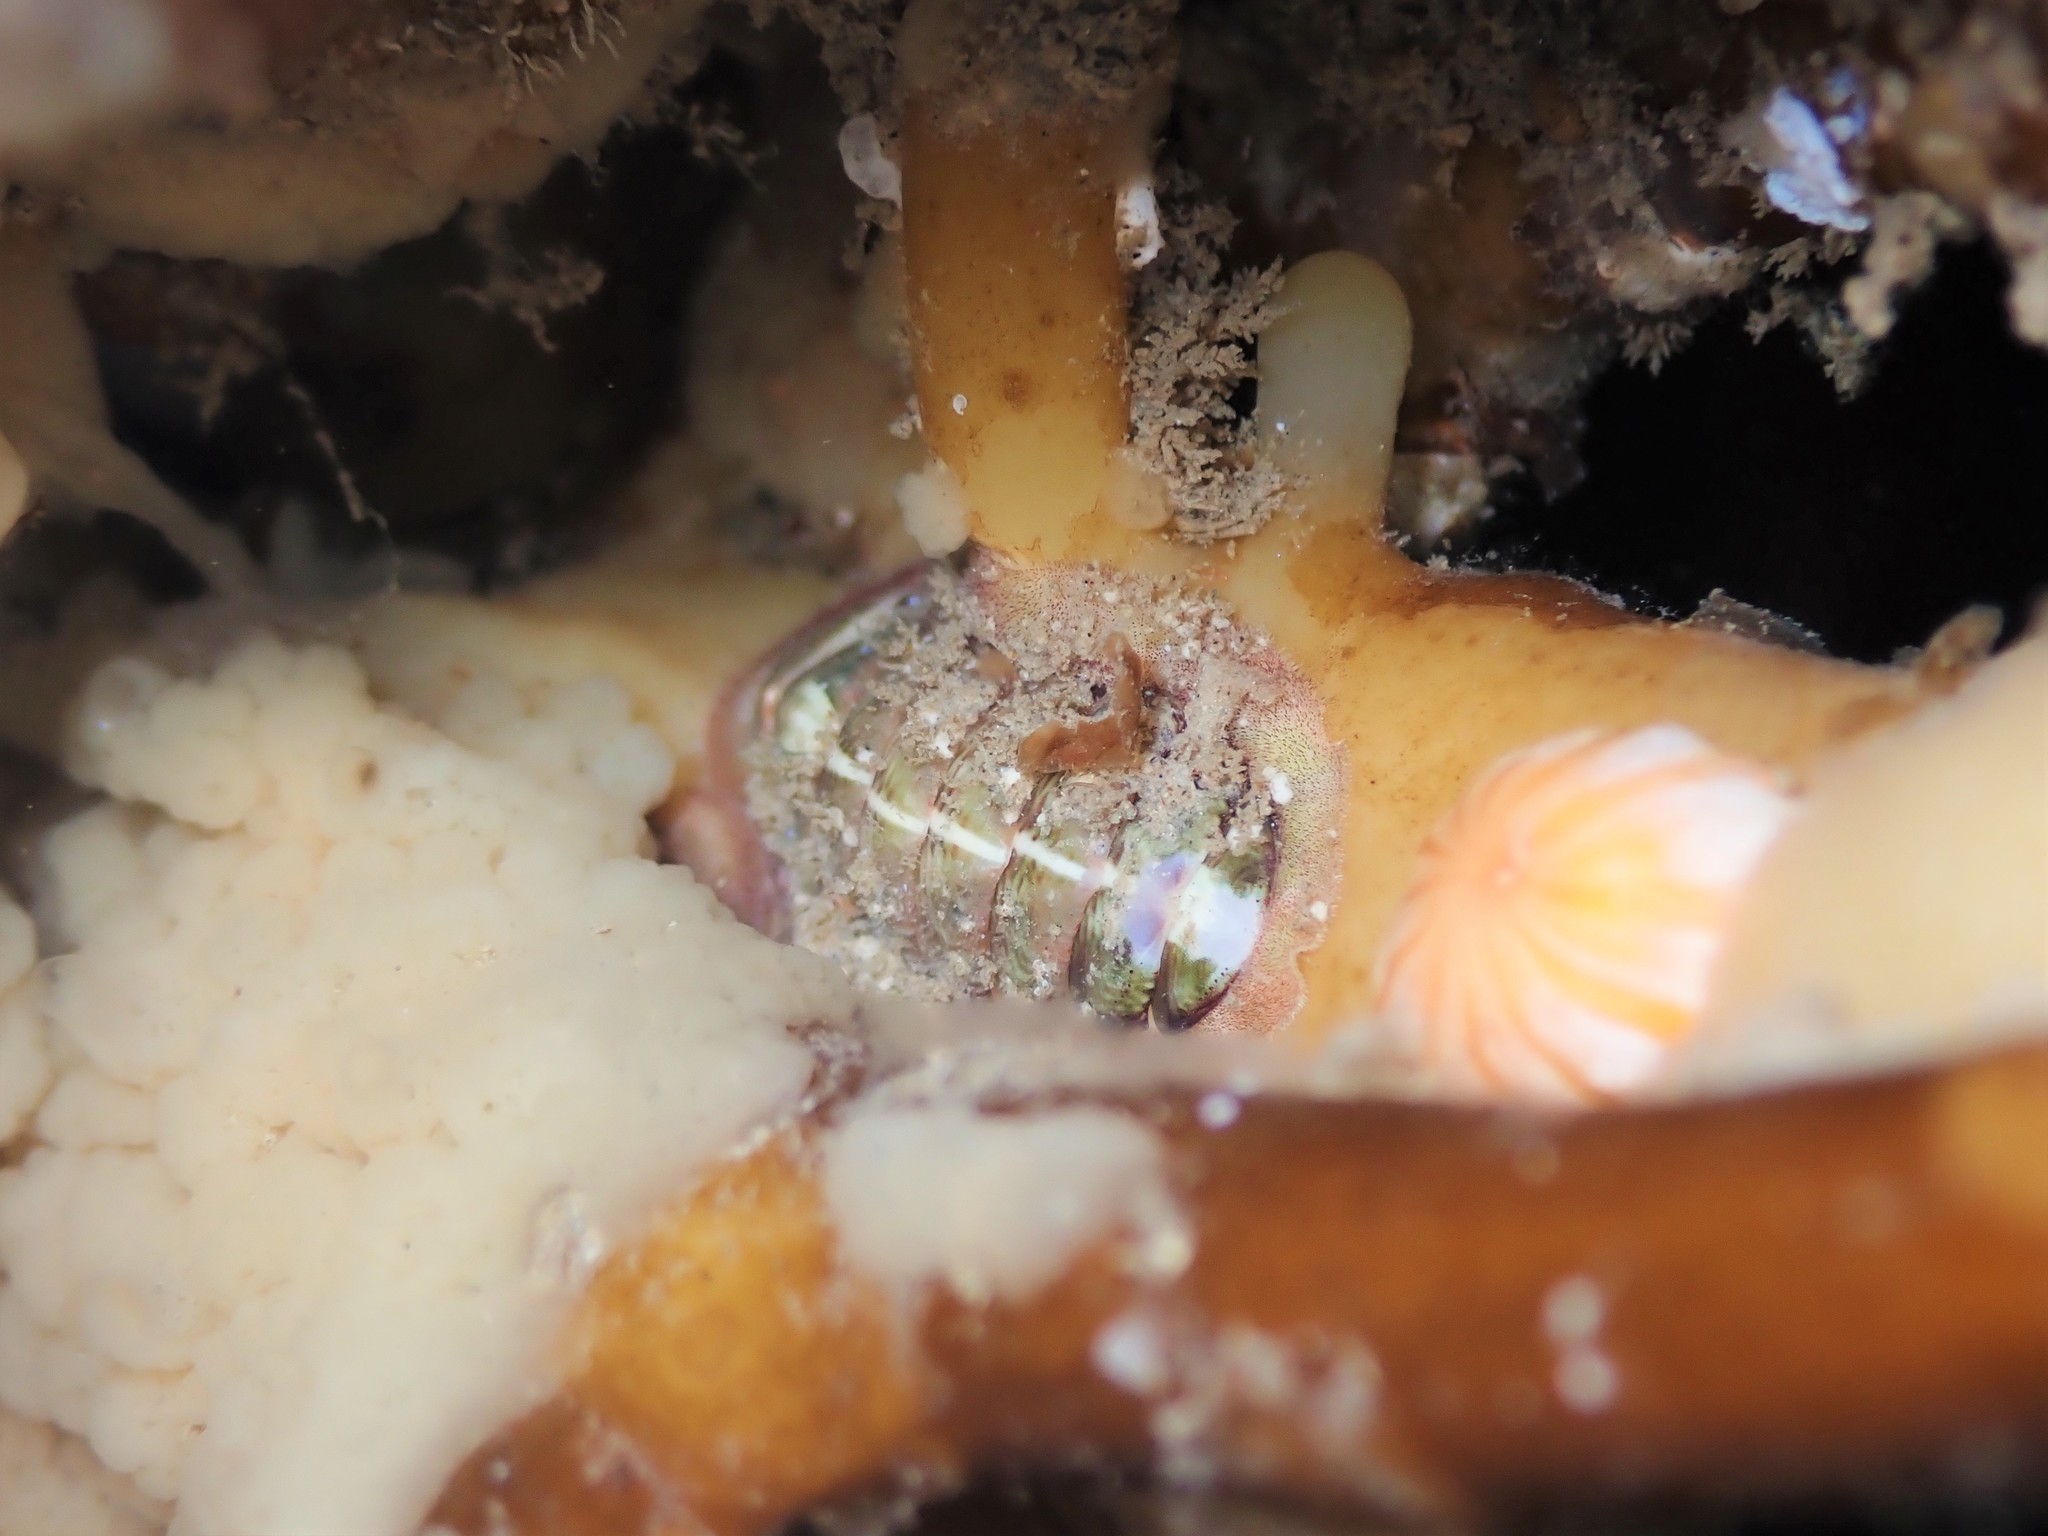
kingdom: Animalia
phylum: Mollusca
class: Polyplacophora
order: Chitonida
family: Chitonidae
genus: Onithochiton
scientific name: Onithochiton neglectus
